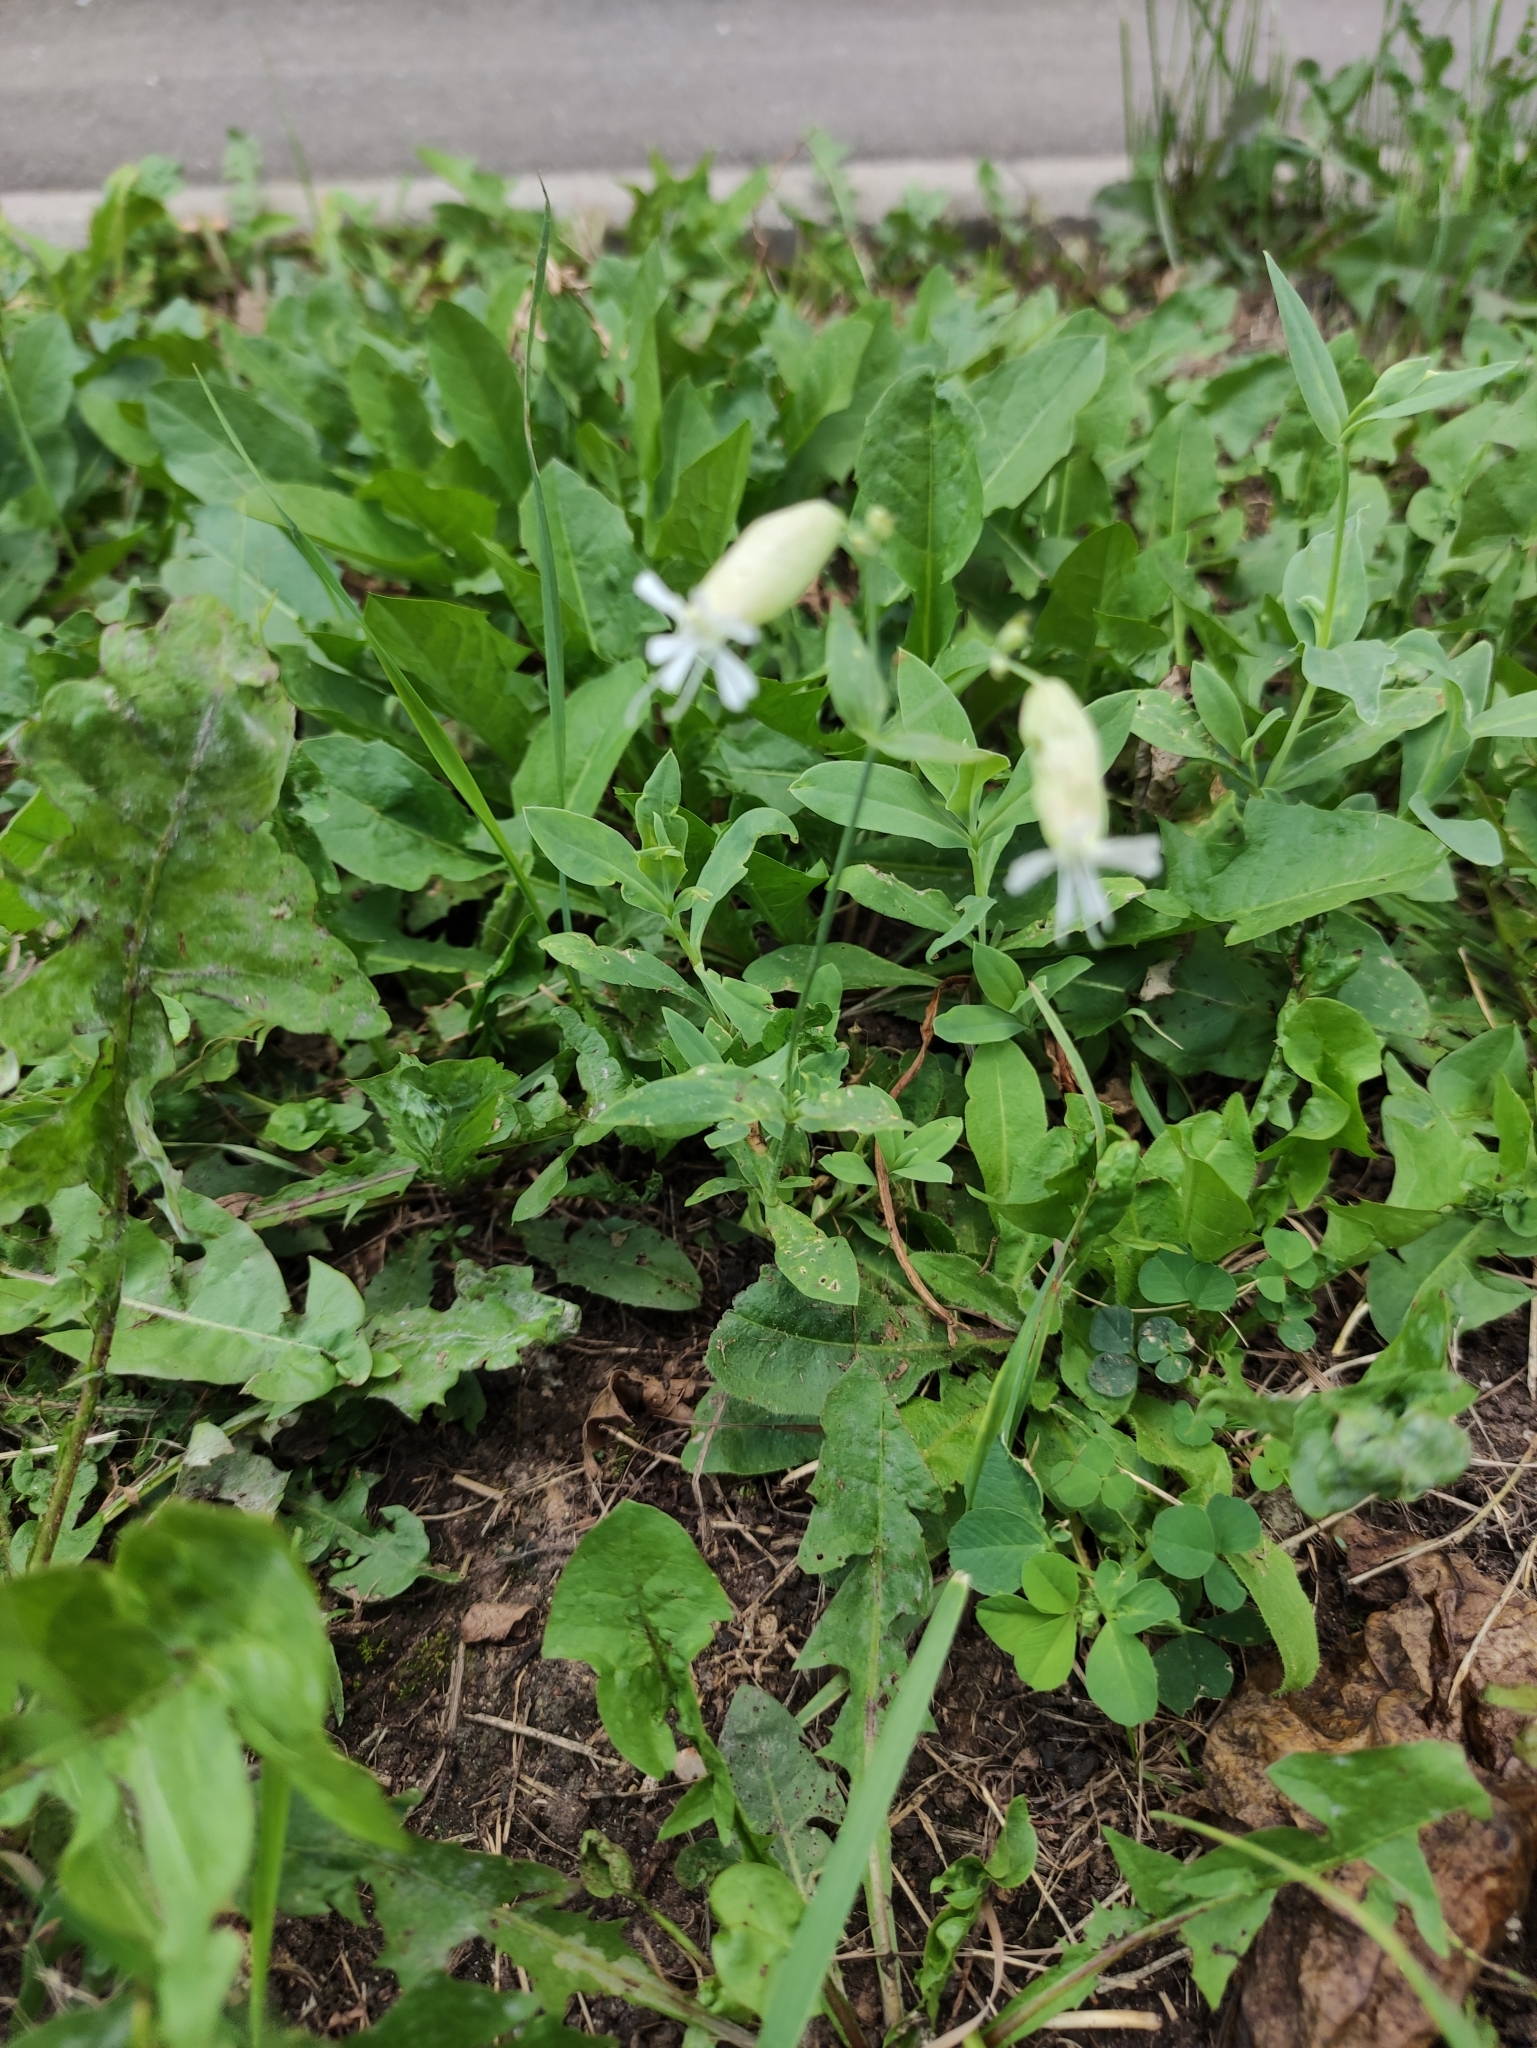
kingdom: Plantae
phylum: Tracheophyta
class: Magnoliopsida
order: Caryophyllales
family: Caryophyllaceae
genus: Silene
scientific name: Silene vulgaris
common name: Bladder campion
